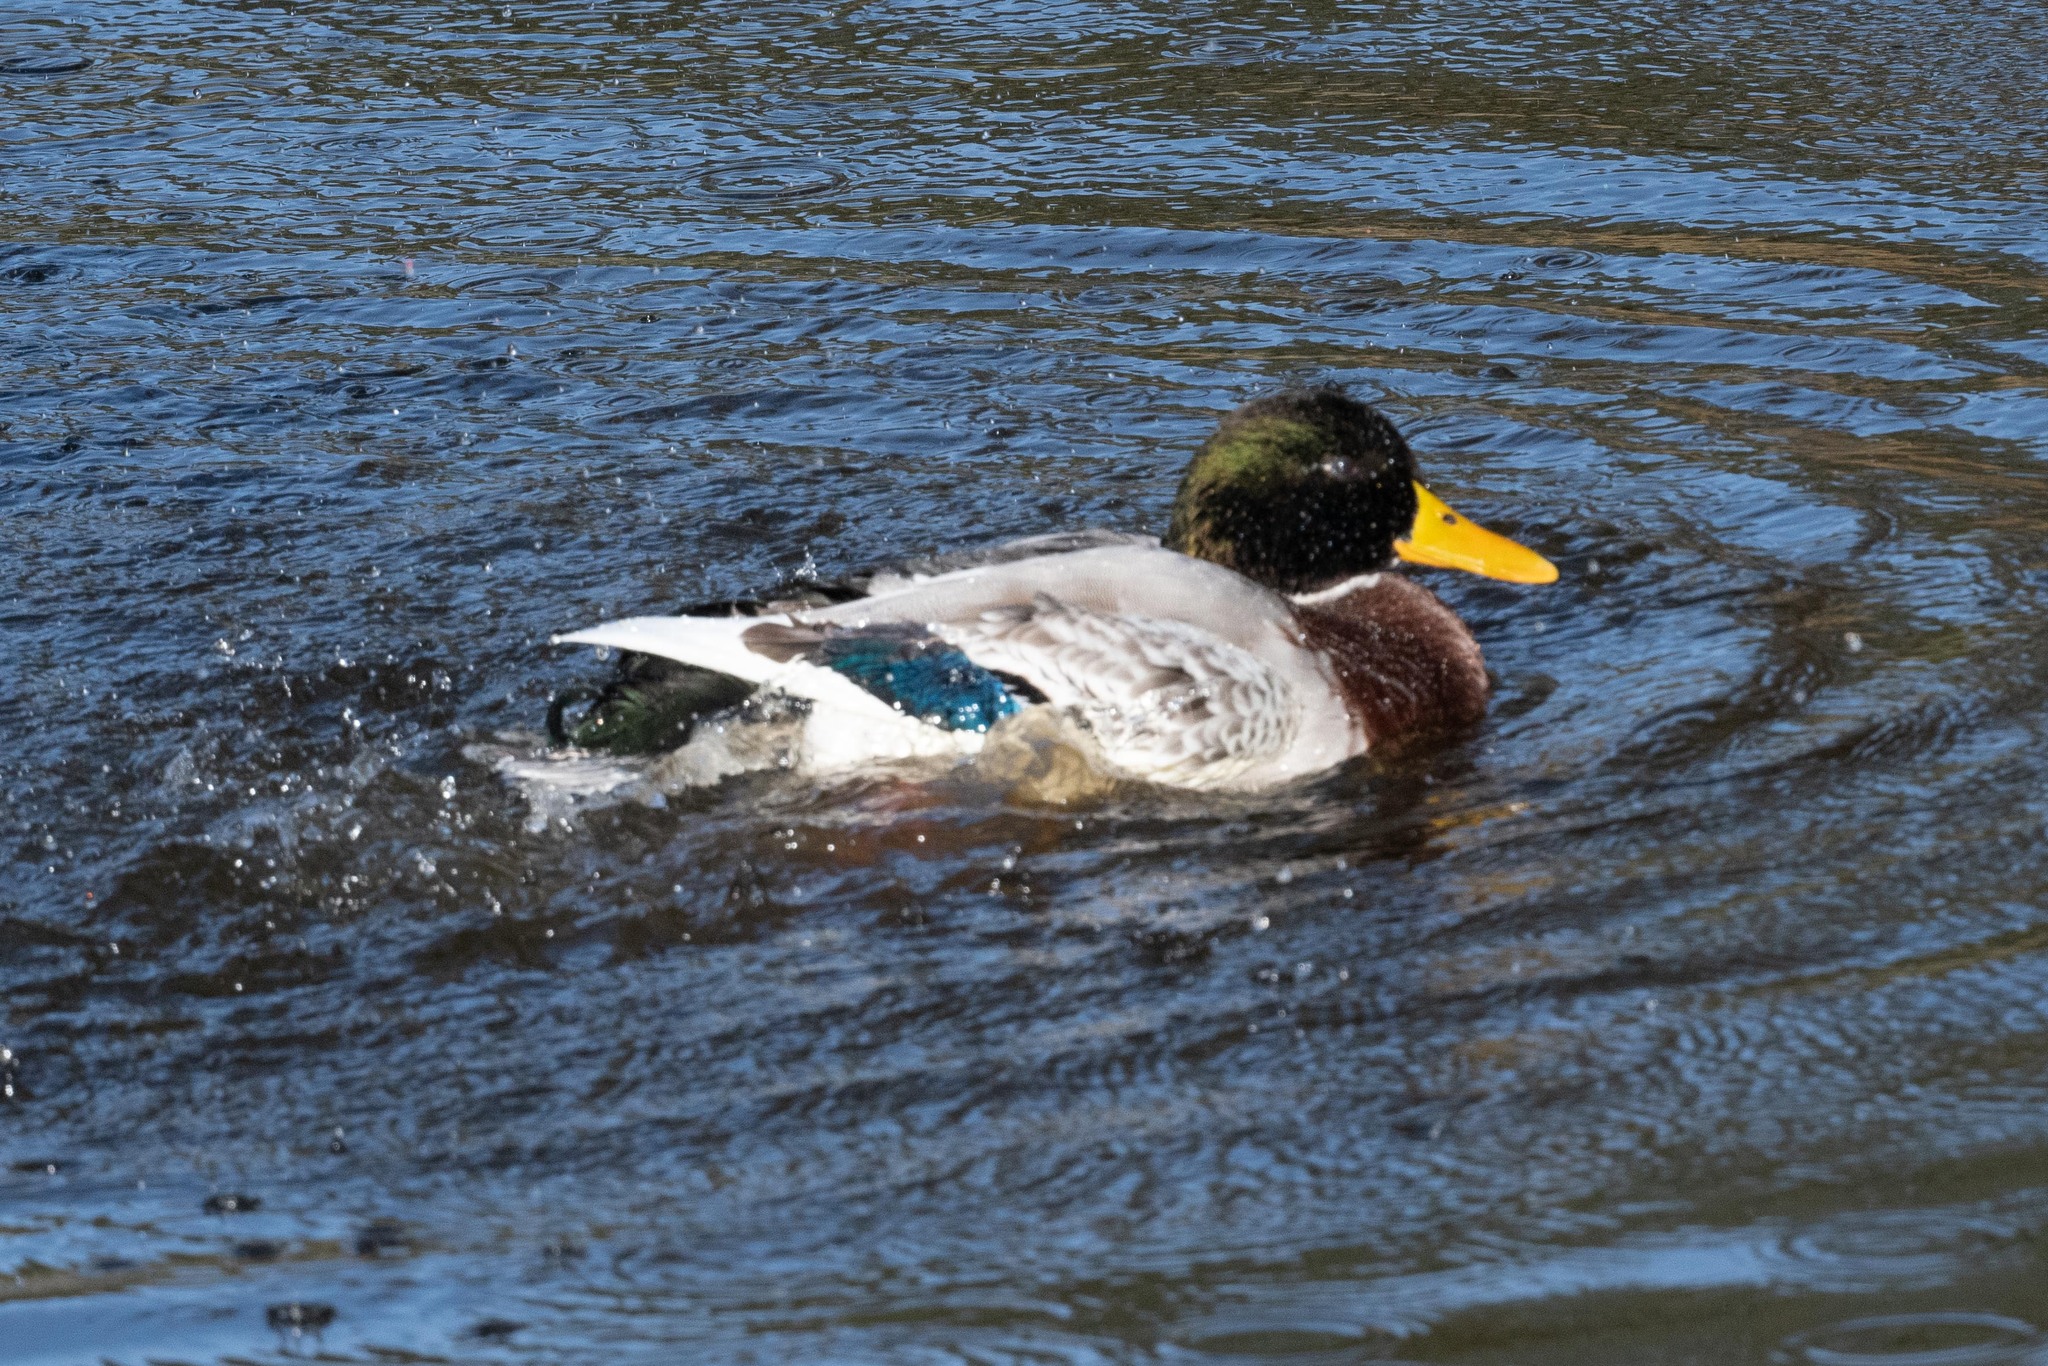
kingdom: Animalia
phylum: Chordata
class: Aves
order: Anseriformes
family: Anatidae
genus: Anas
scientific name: Anas platyrhynchos
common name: Mallard
